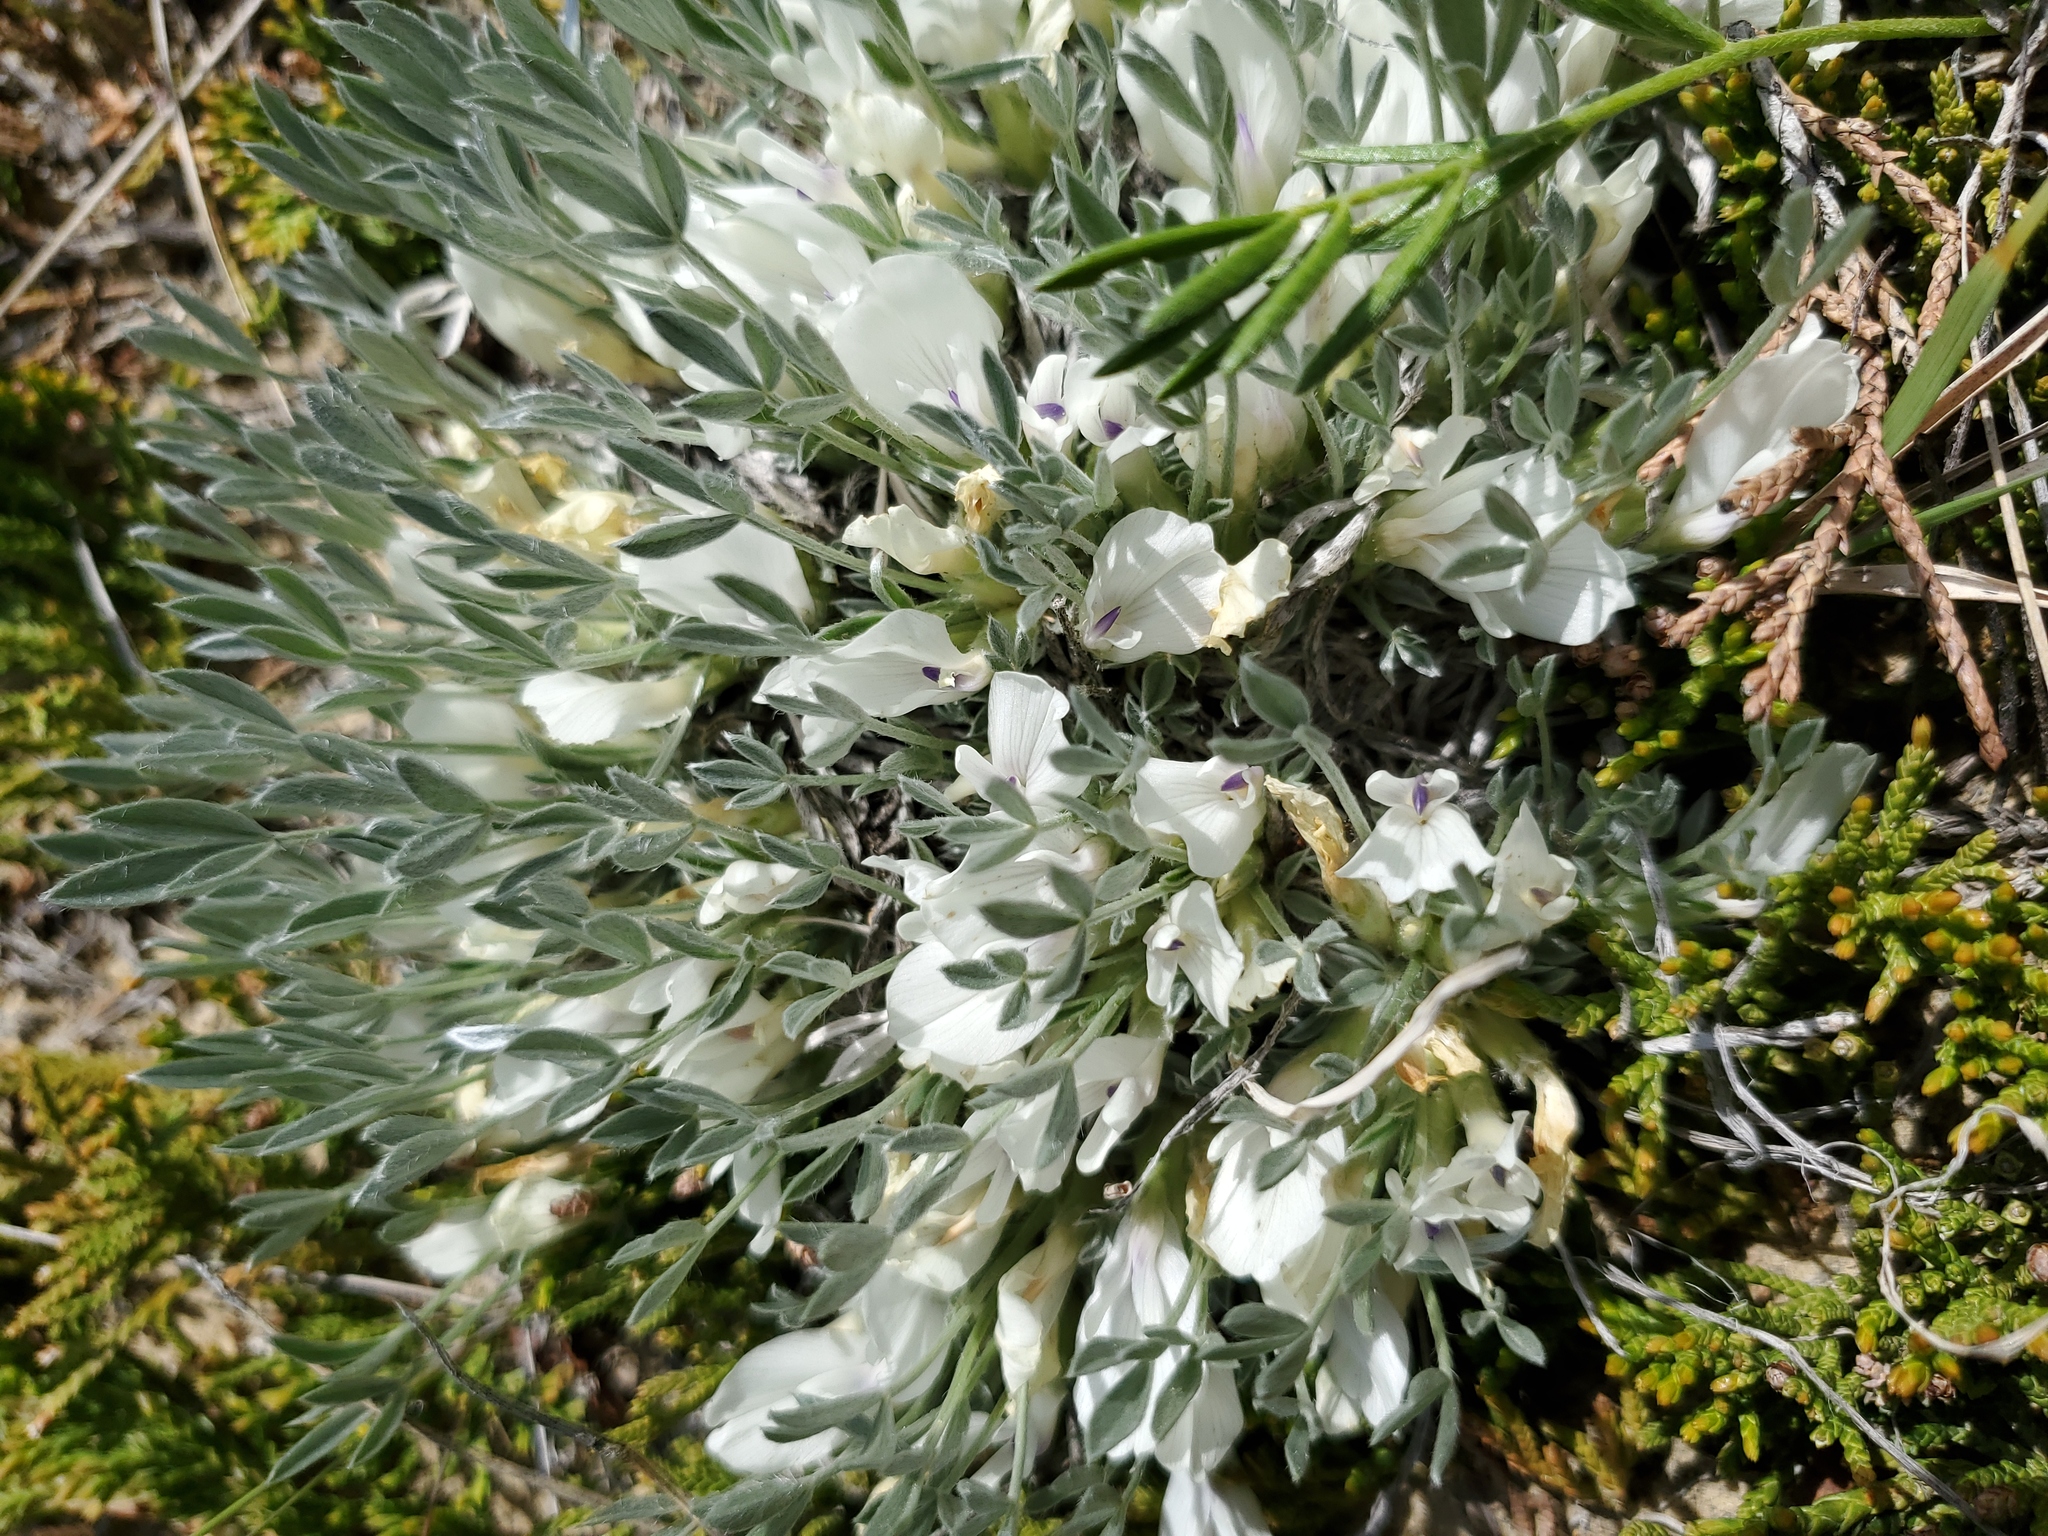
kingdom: Plantae
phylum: Tracheophyta
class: Magnoliopsida
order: Fabales
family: Fabaceae
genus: Astragalus
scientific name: Astragalus gilviflorus
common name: Cushion milk-vetch
